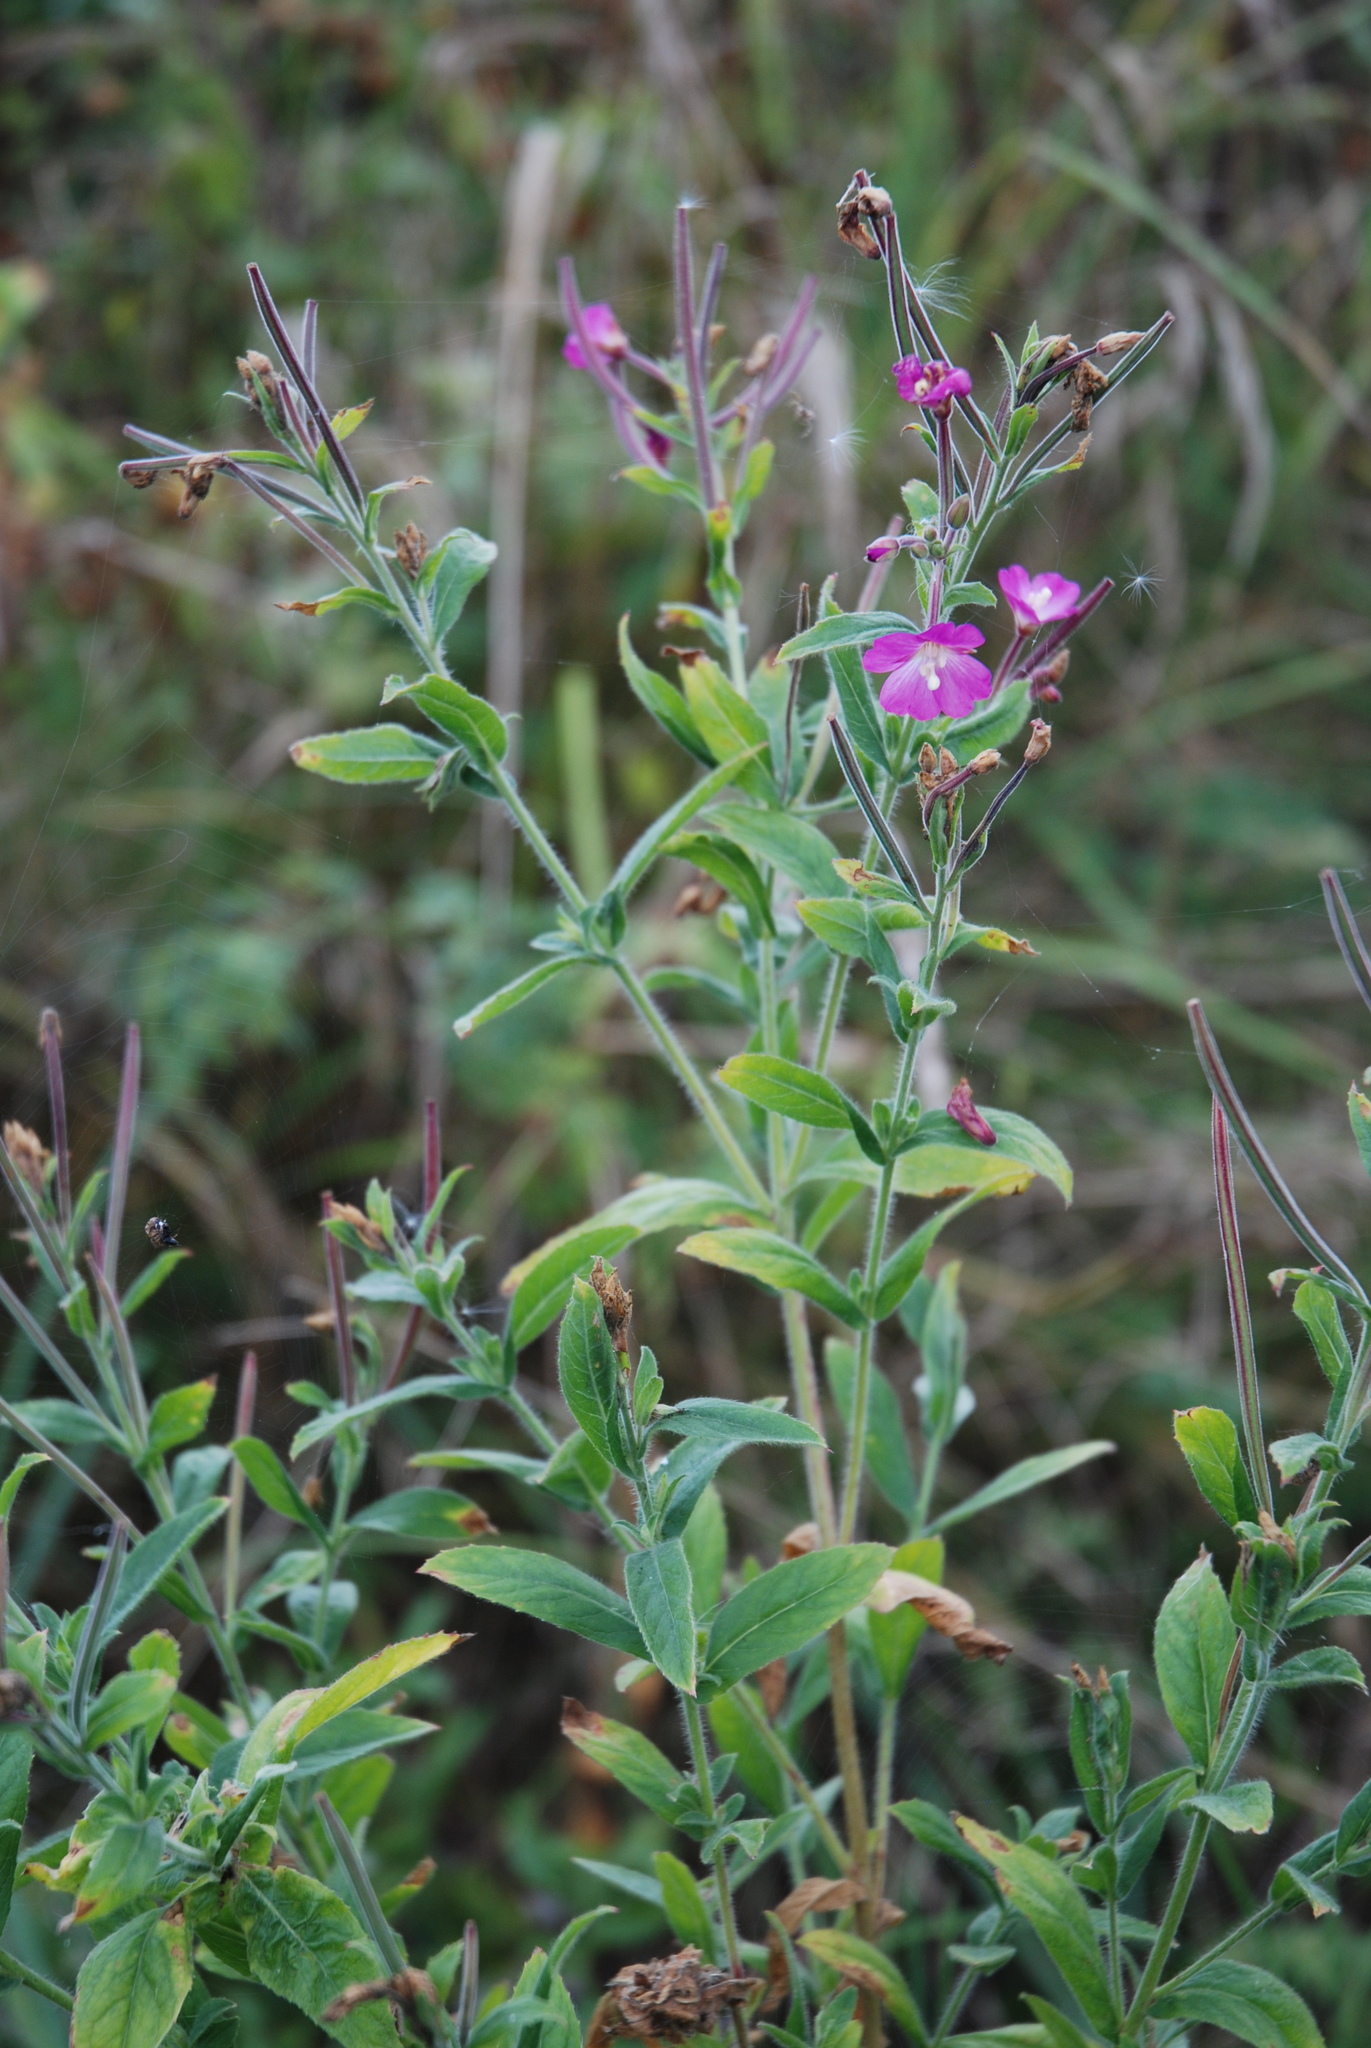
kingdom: Plantae
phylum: Tracheophyta
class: Magnoliopsida
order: Myrtales
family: Onagraceae
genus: Epilobium
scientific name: Epilobium hirsutum
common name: Great willowherb
